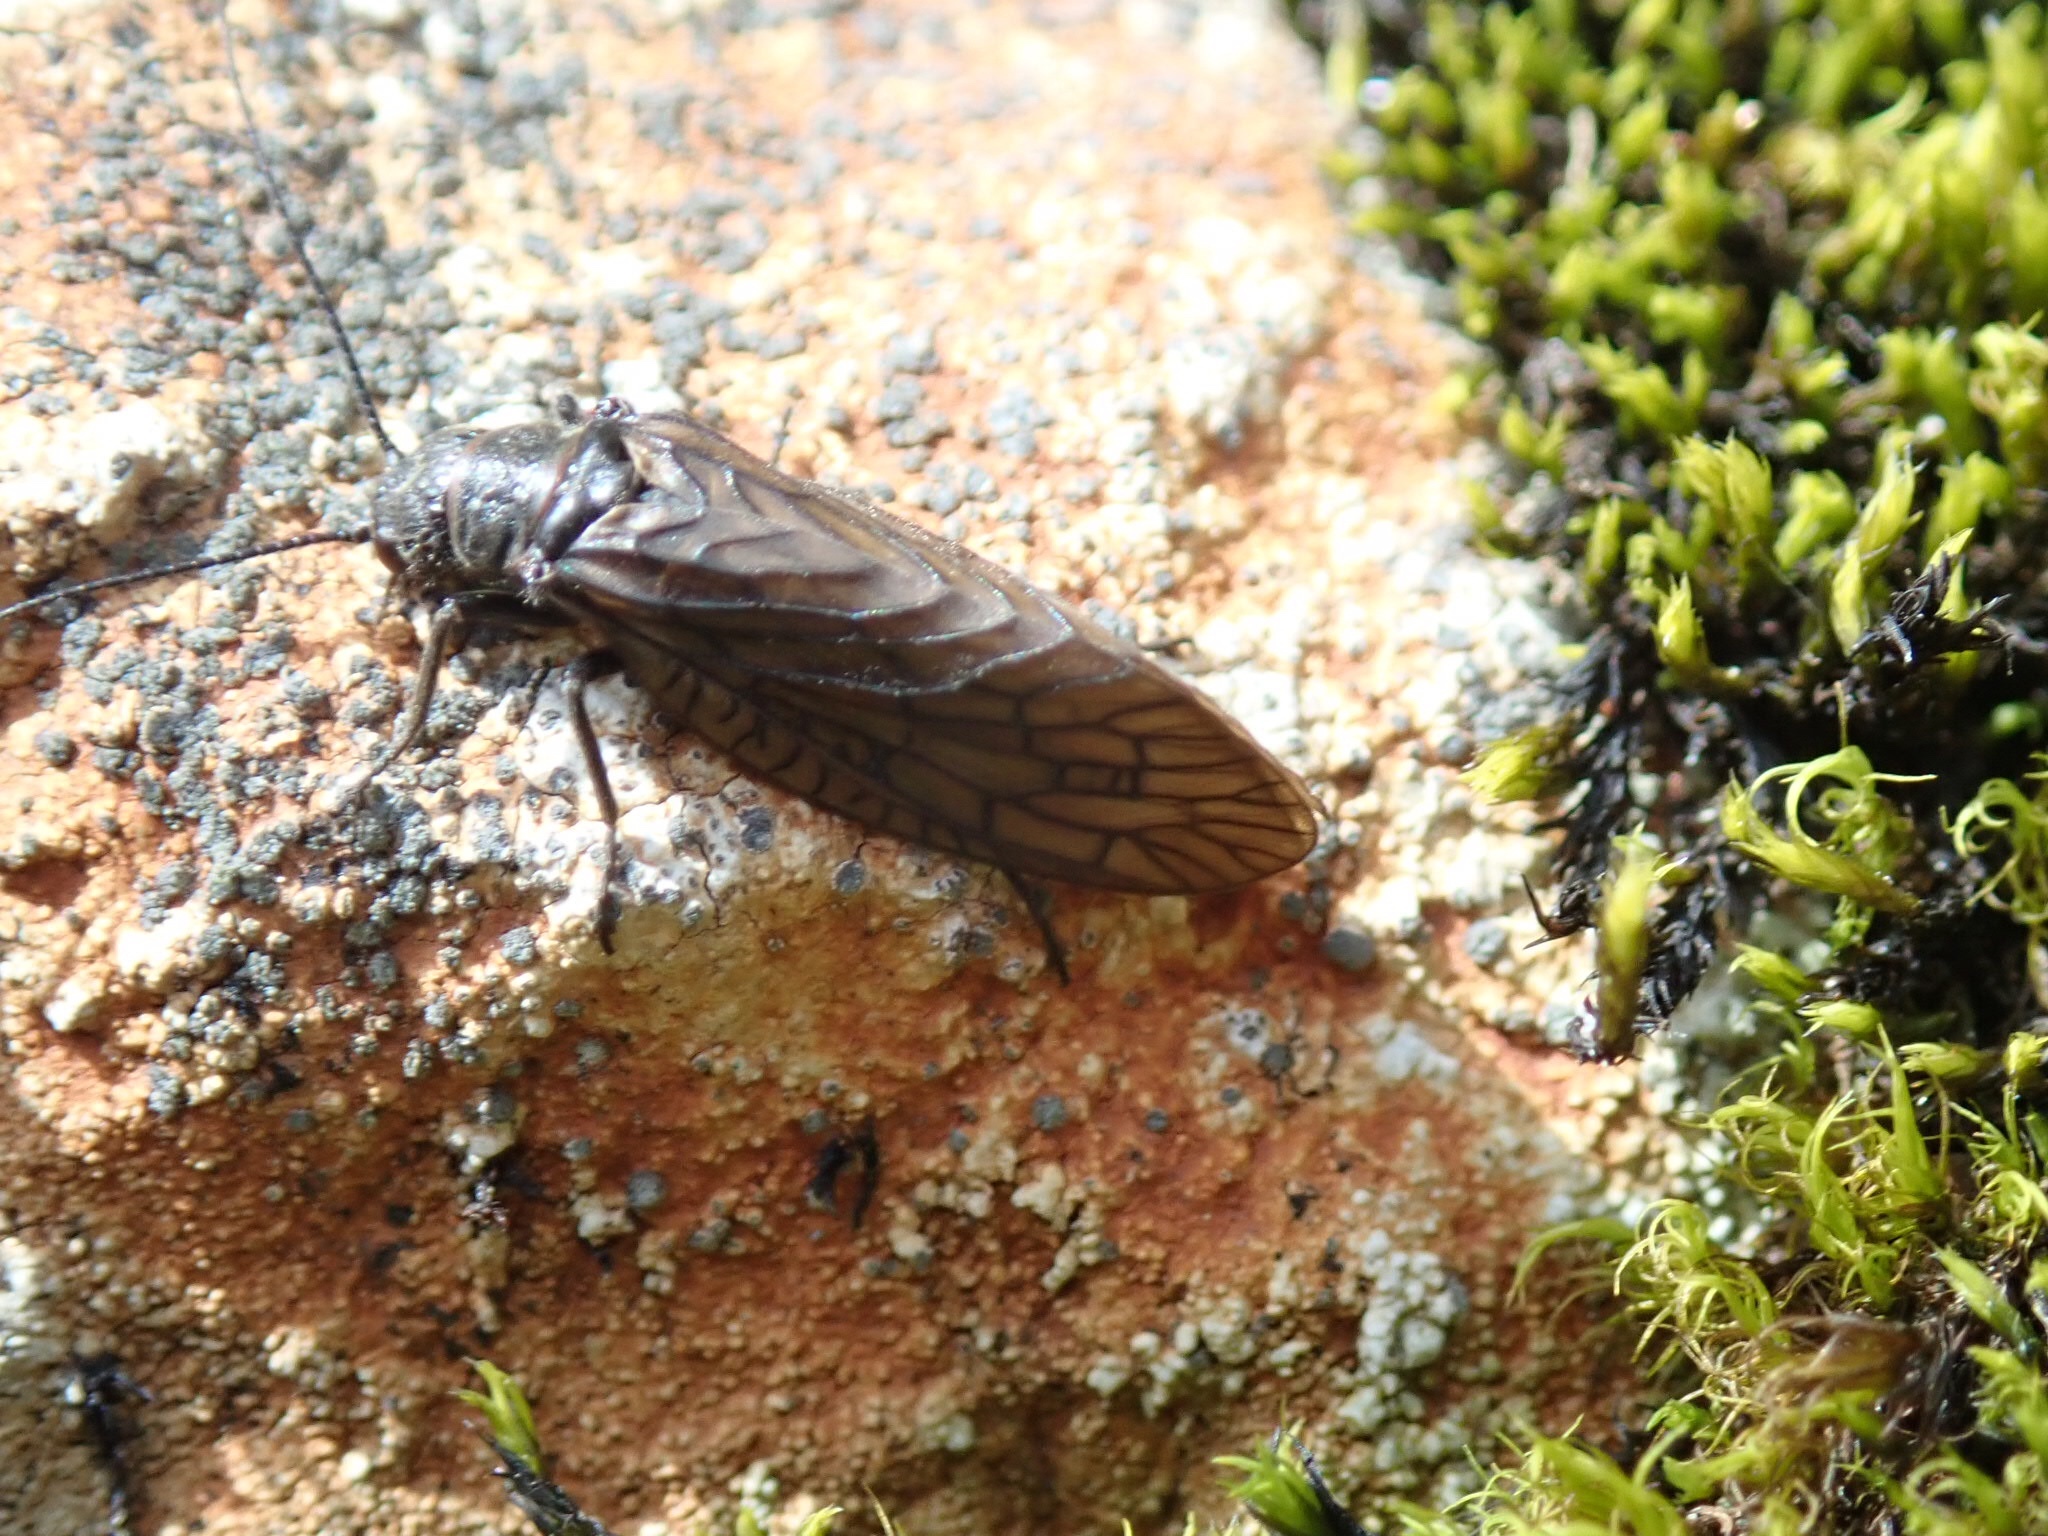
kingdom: Animalia
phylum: Arthropoda
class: Insecta
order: Megaloptera
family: Sialidae
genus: Sialis
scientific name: Sialis
